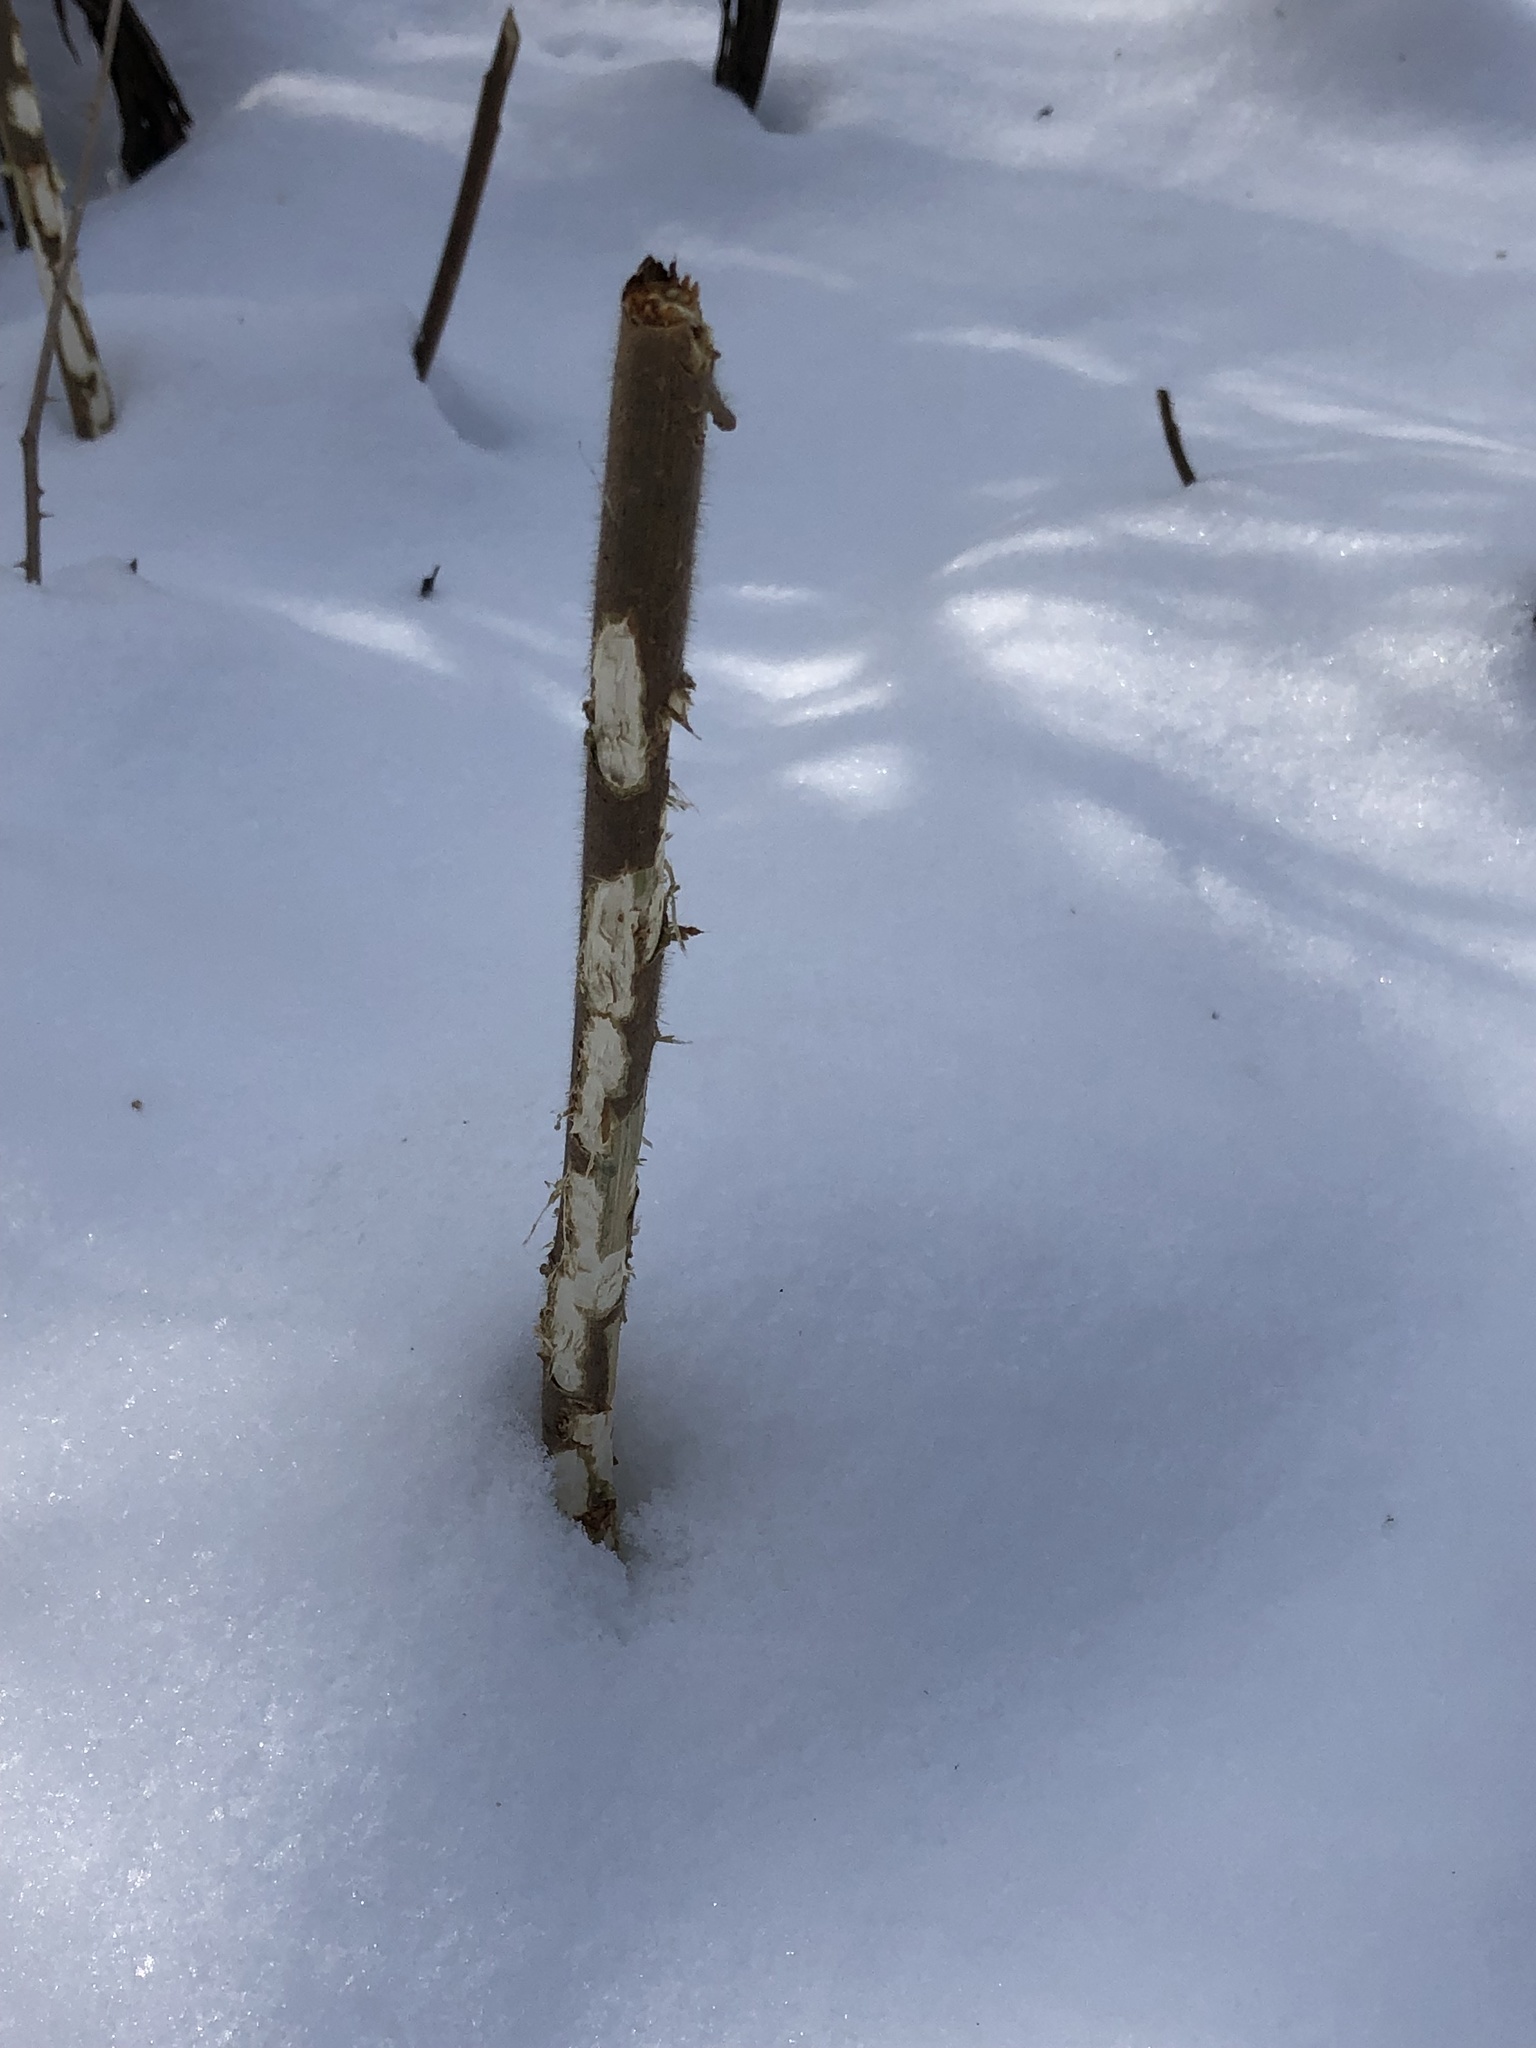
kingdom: Animalia
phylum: Chordata
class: Mammalia
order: Lagomorpha
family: Leporidae
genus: Sylvilagus
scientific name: Sylvilagus floridanus
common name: Eastern cottontail
